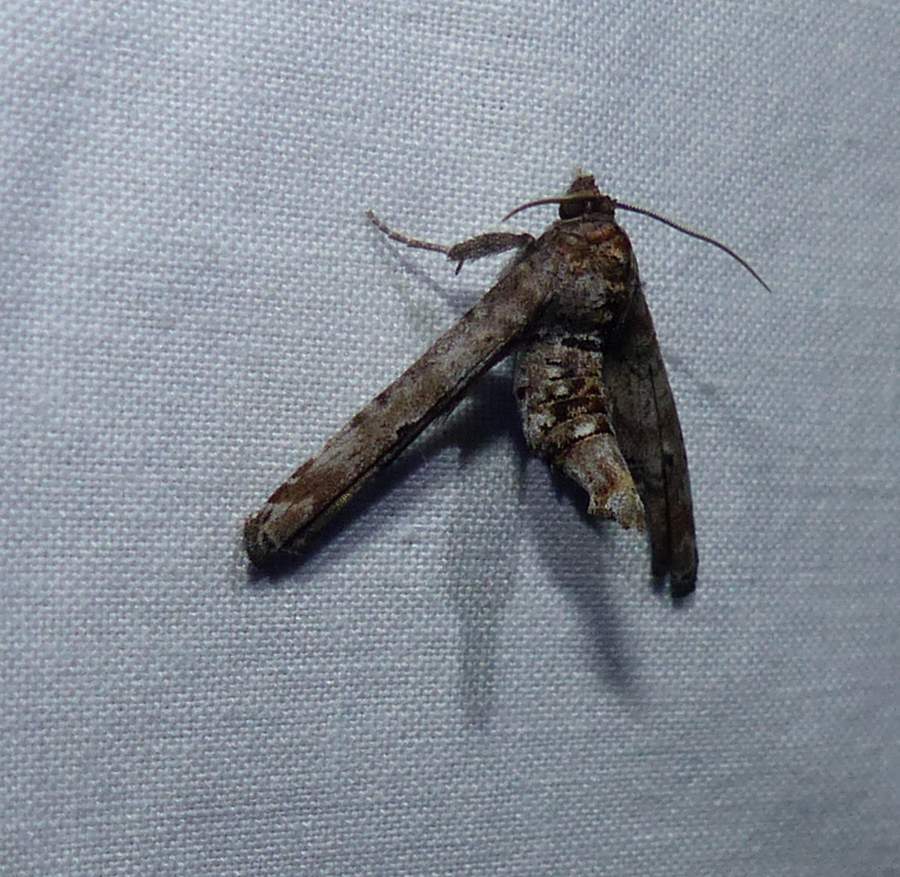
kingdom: Animalia
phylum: Arthropoda
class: Insecta
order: Lepidoptera
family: Euteliidae
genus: Marathyssa
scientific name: Marathyssa inficita
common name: Dark marathyssa moth
